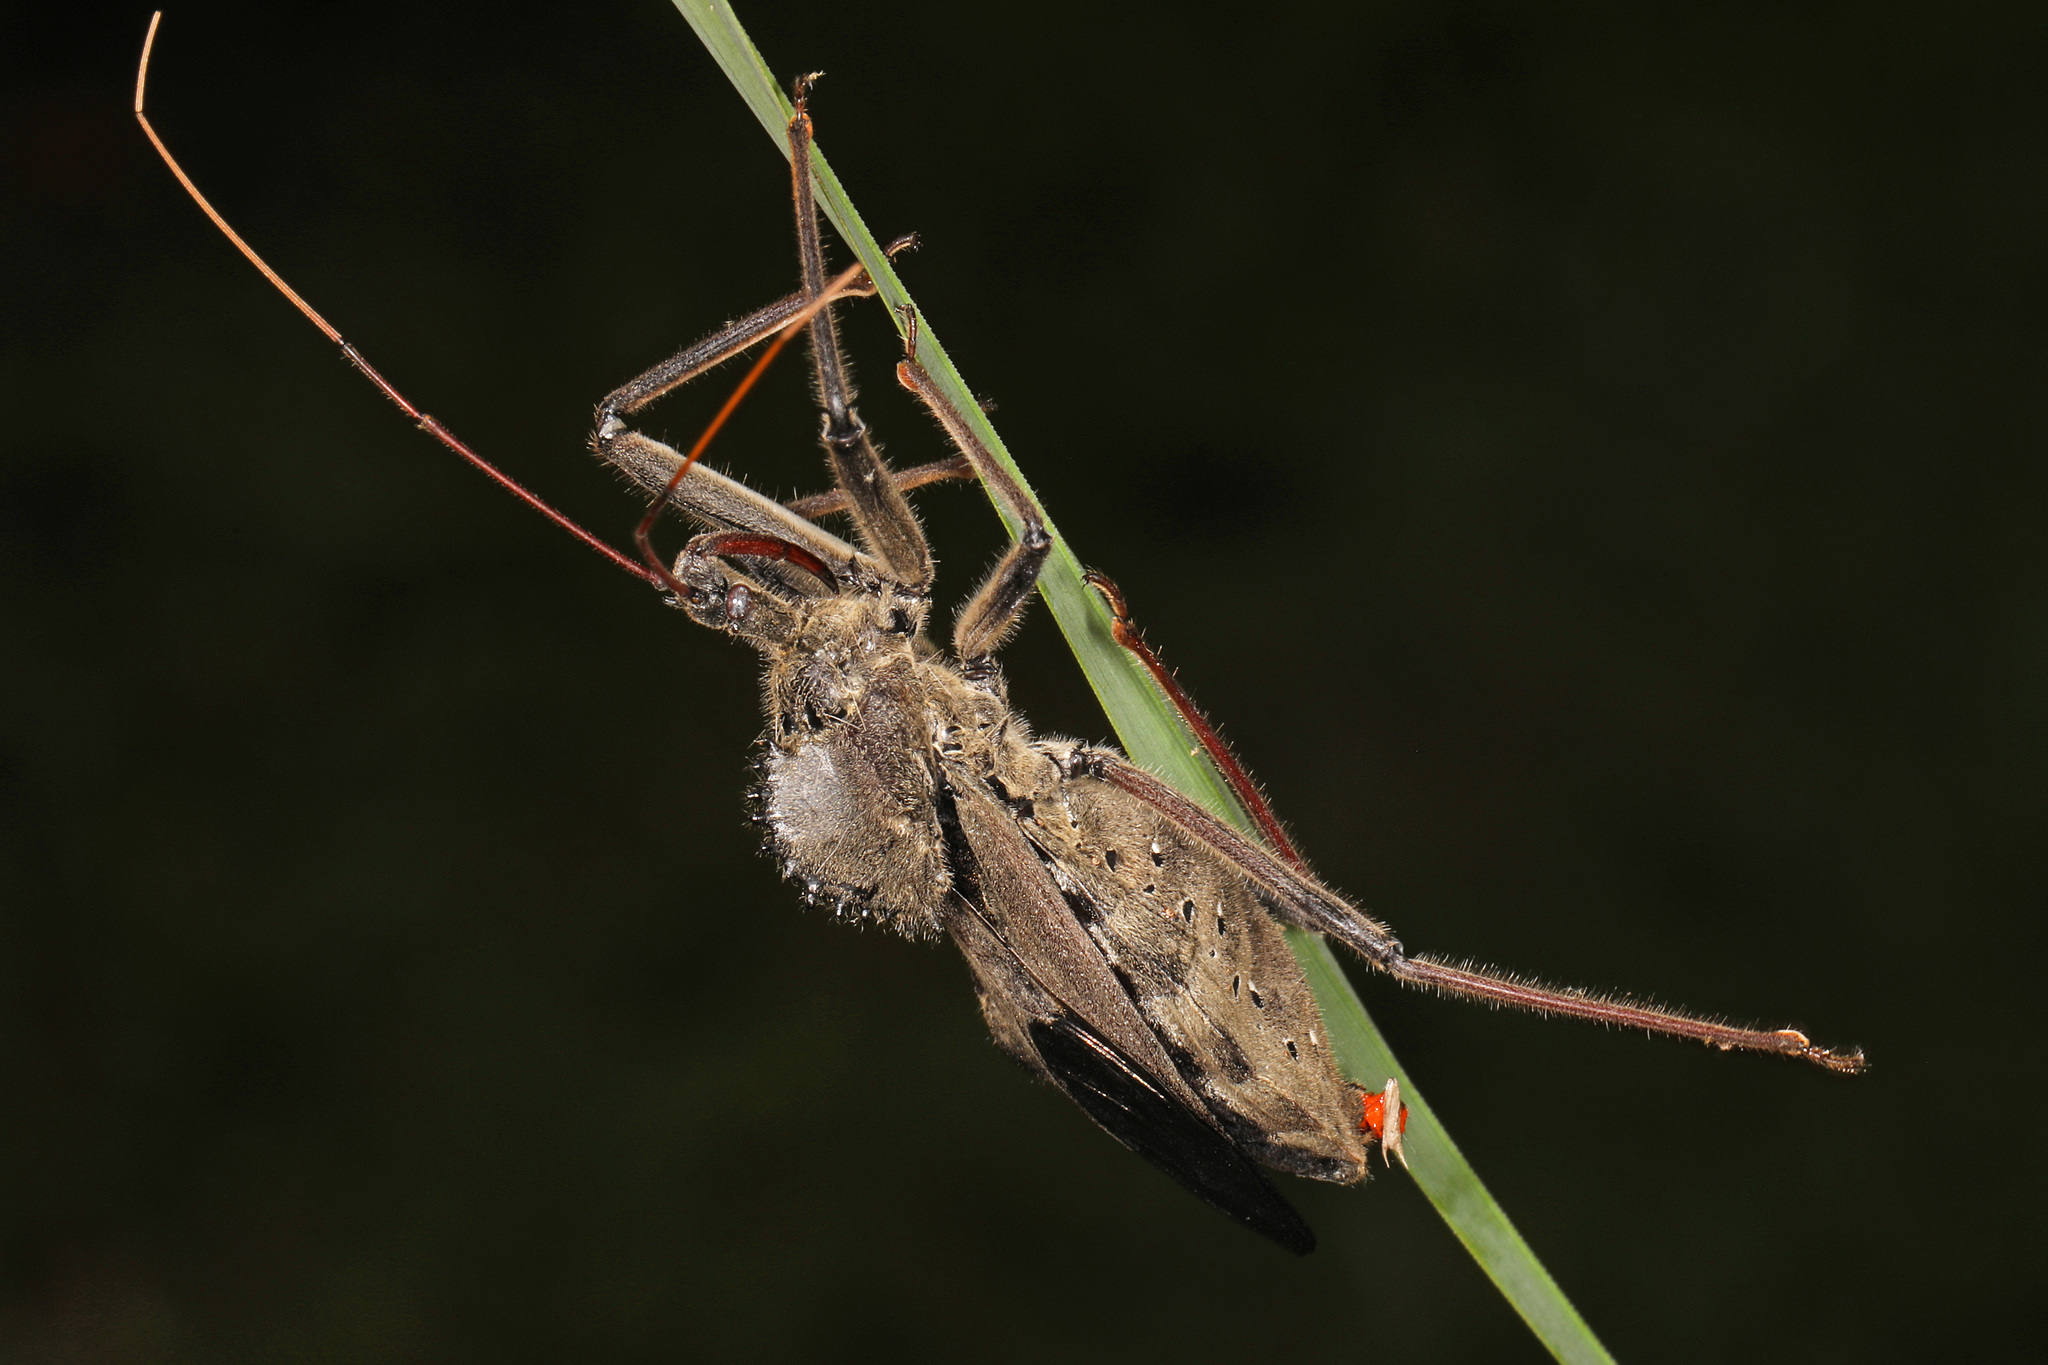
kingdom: Animalia
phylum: Arthropoda
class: Insecta
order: Hemiptera
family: Reduviidae
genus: Arilus
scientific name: Arilus cristatus
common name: North american wheel bug
